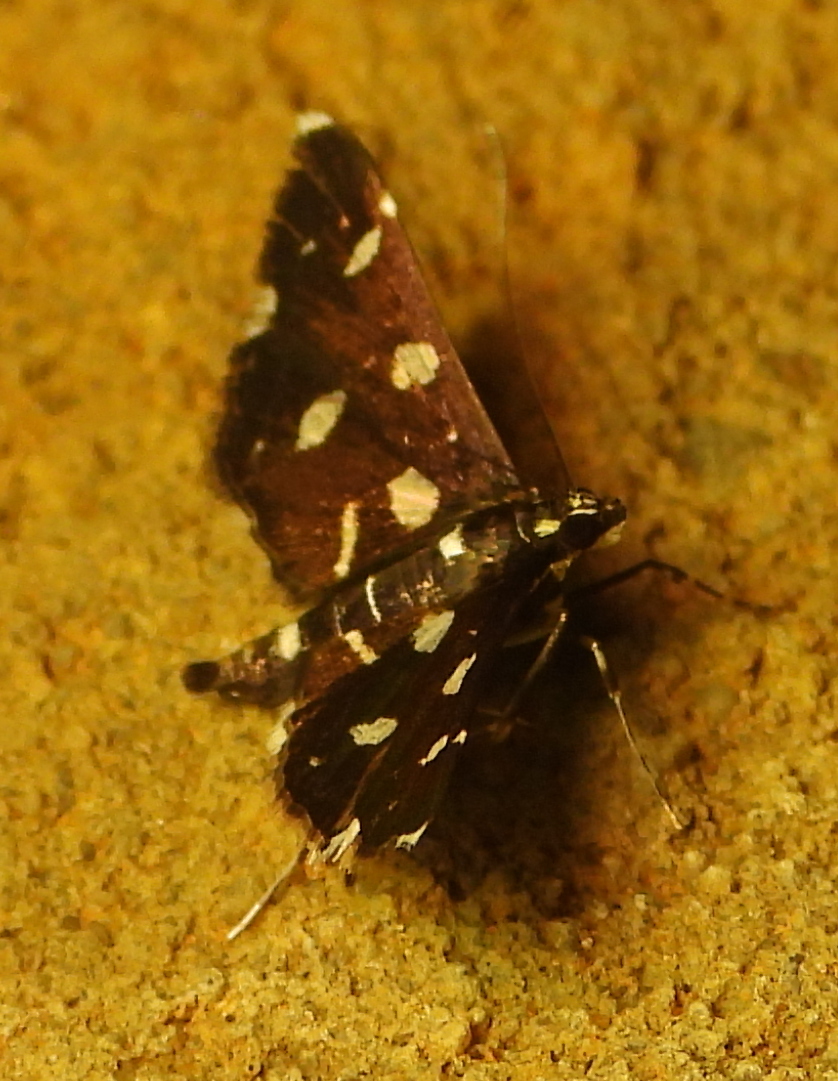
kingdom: Animalia
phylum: Arthropoda
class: Insecta
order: Lepidoptera
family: Crambidae
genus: Bocchoris
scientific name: Bocchoris inspersalis
